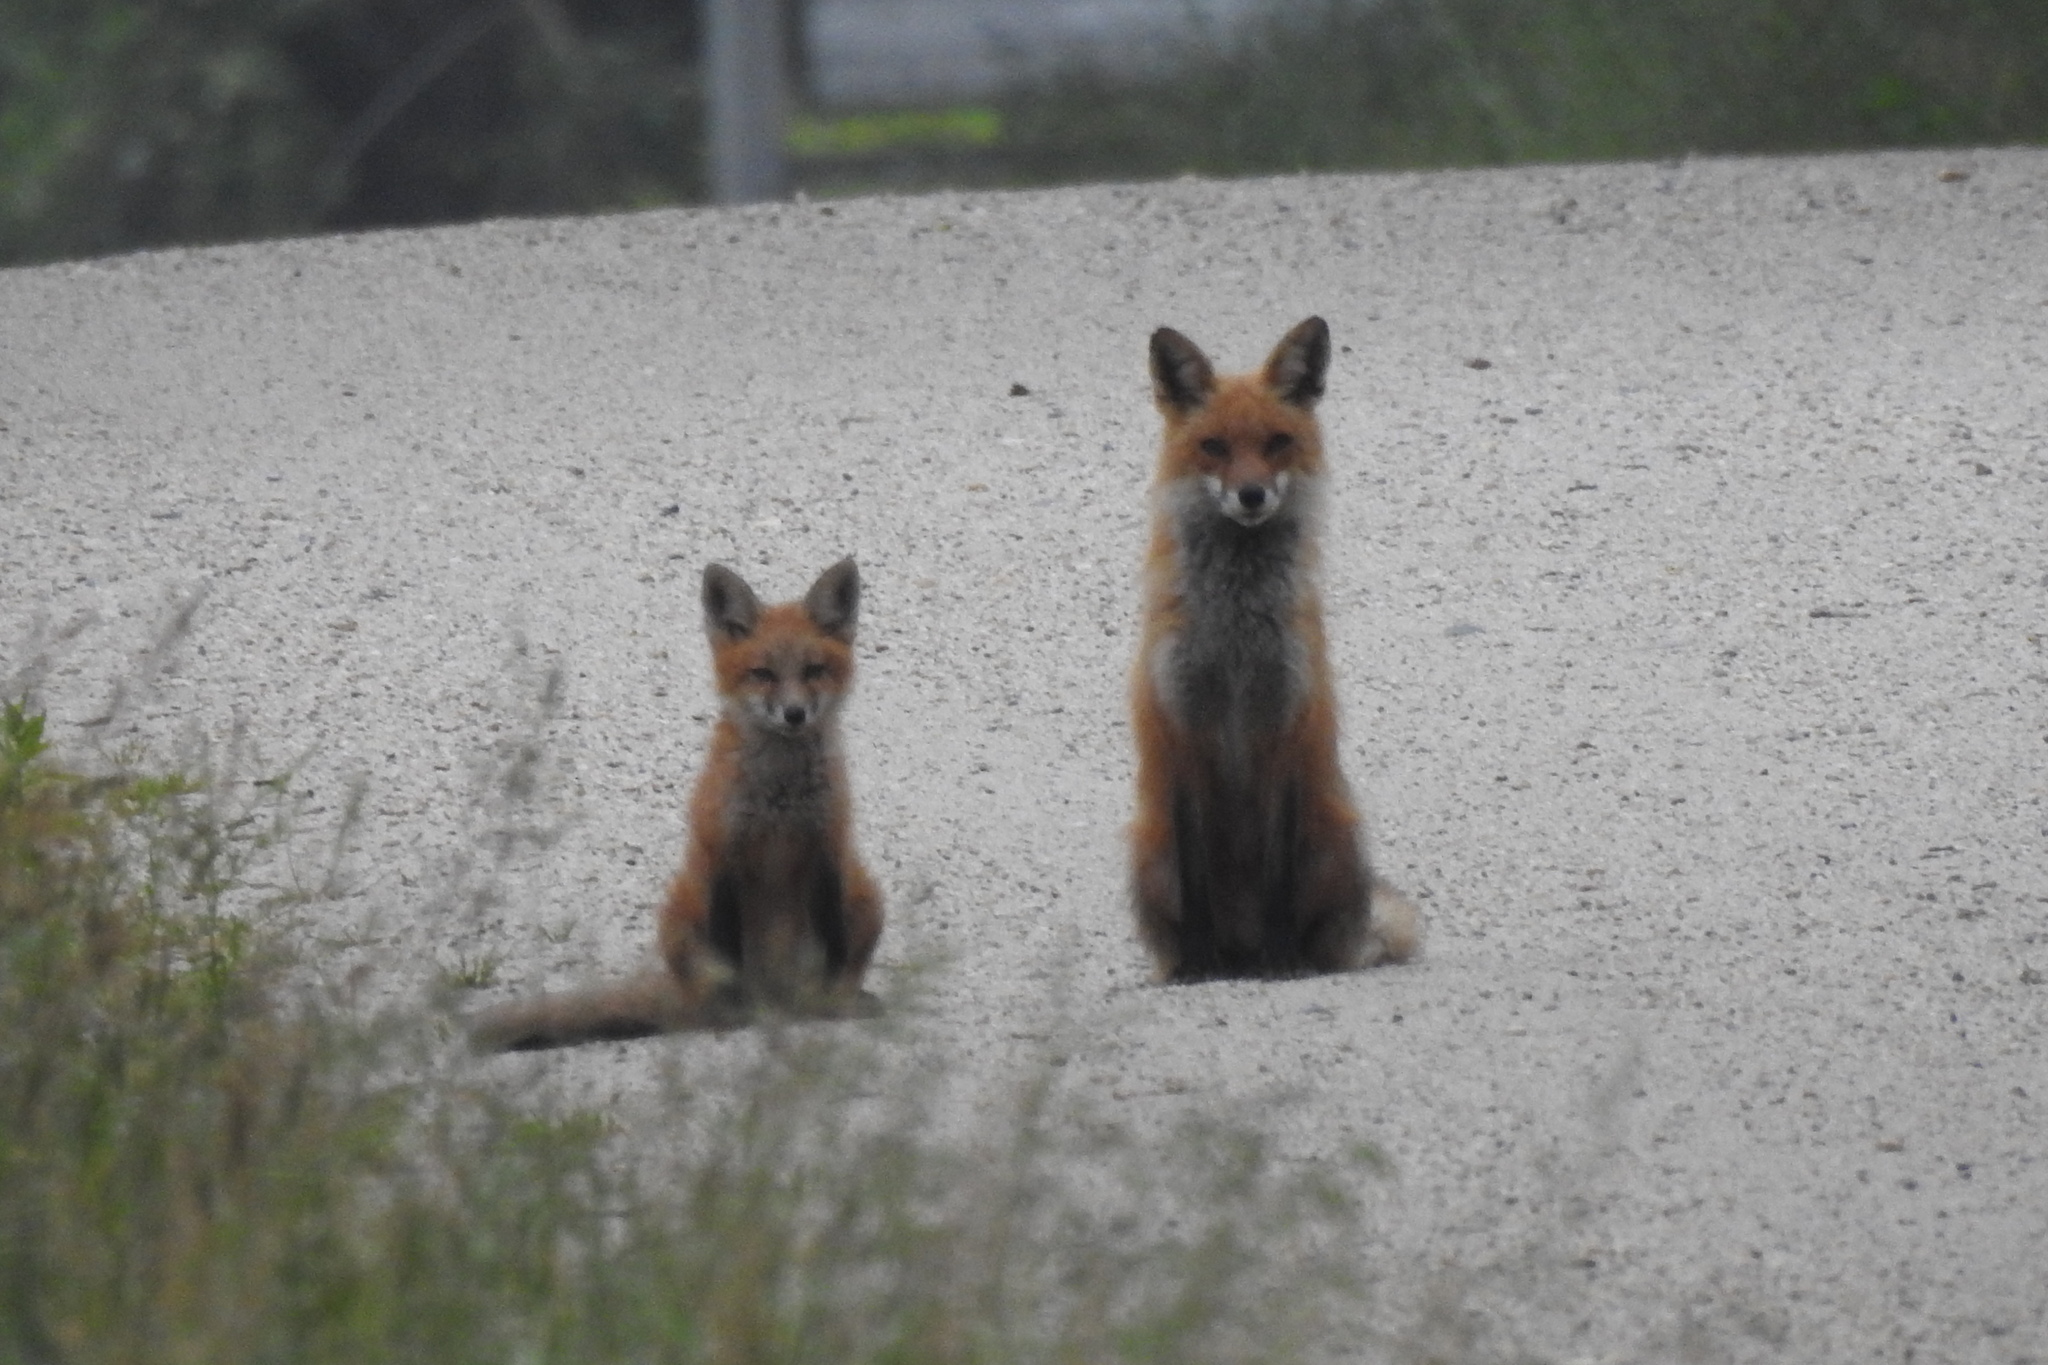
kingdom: Animalia
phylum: Chordata
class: Mammalia
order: Carnivora
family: Canidae
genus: Vulpes
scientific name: Vulpes vulpes
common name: Red fox
